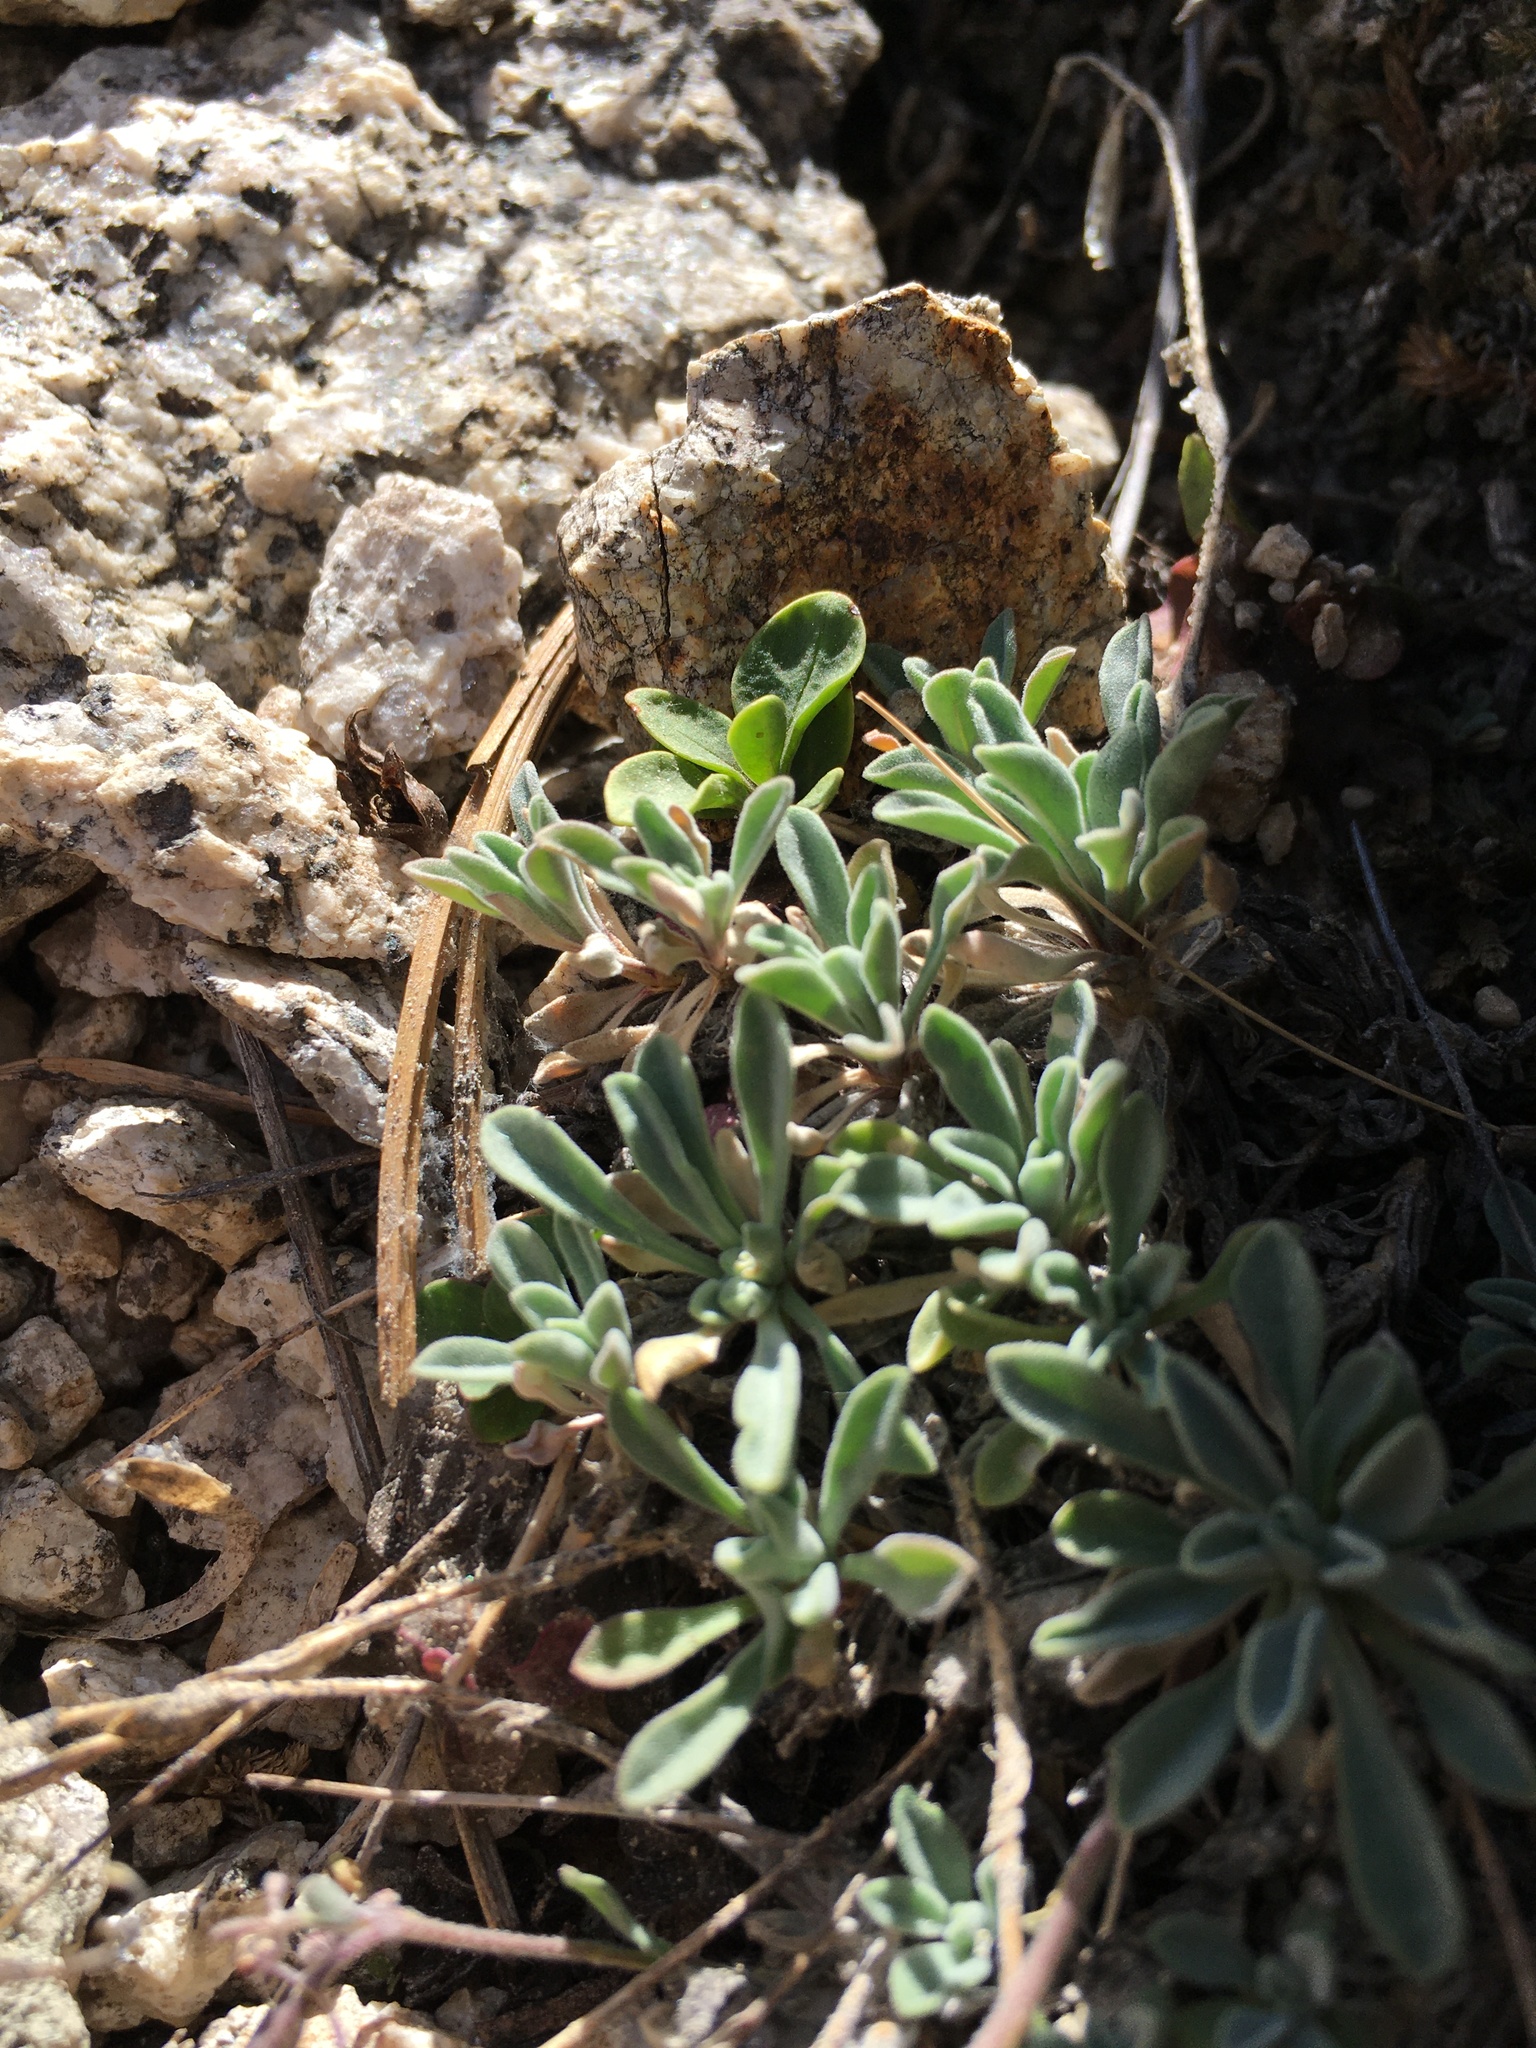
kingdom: Plantae
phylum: Tracheophyta
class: Magnoliopsida
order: Brassicales
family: Brassicaceae
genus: Boechera
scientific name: Boechera lemmonii
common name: Lemmon's rockcress
